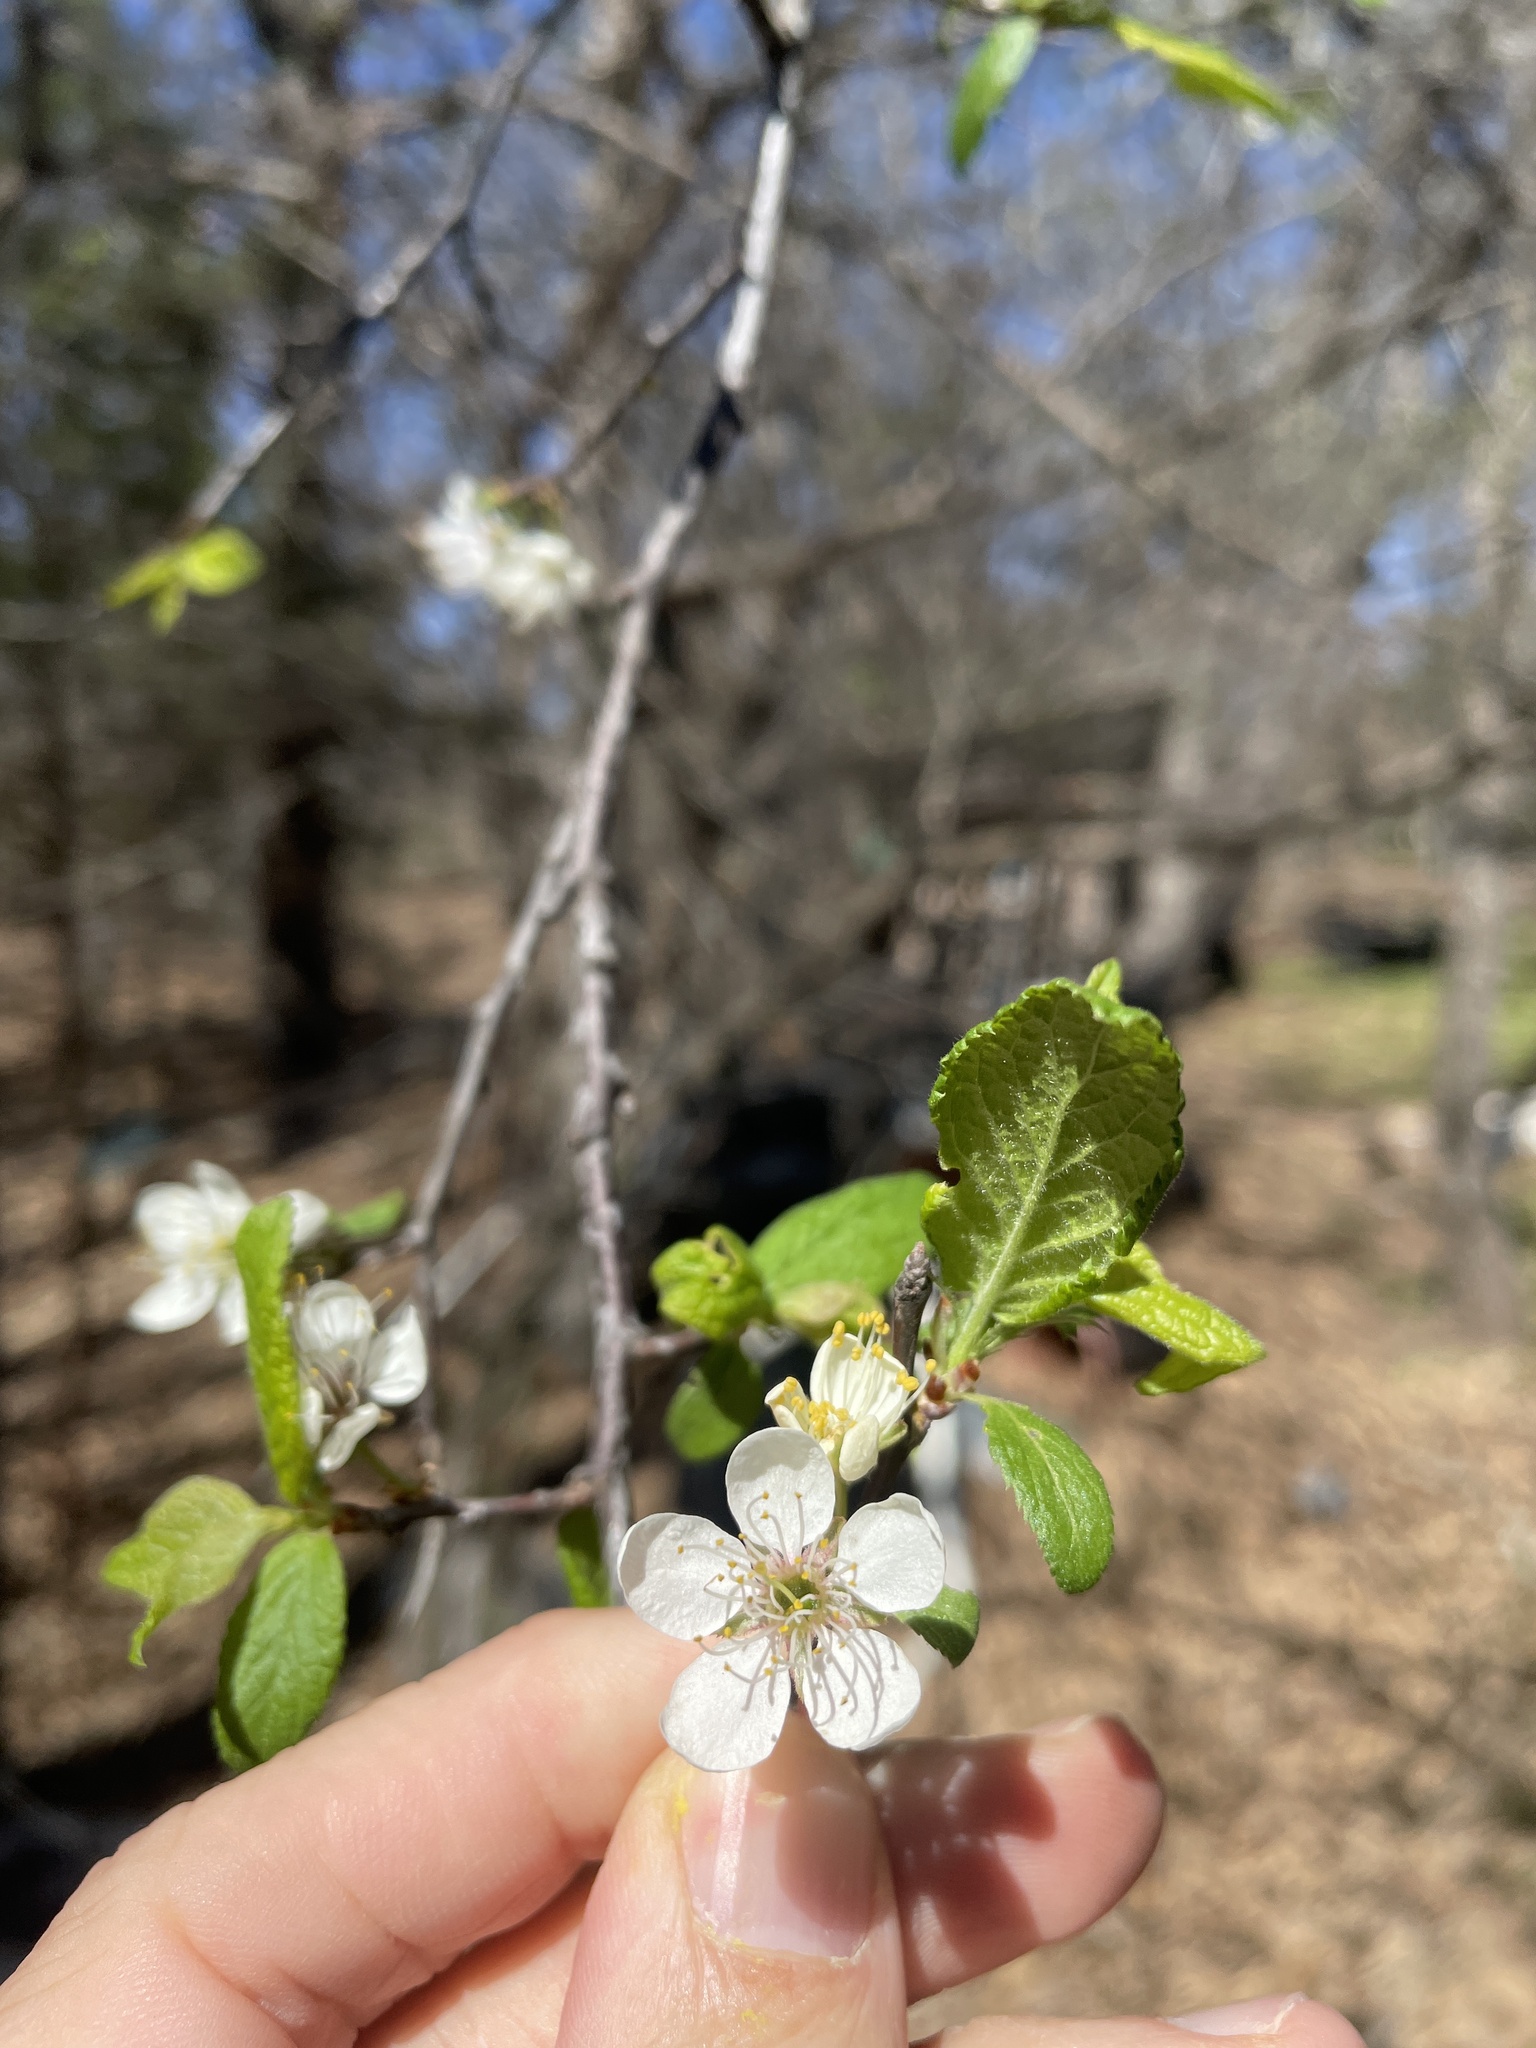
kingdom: Plantae
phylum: Tracheophyta
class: Magnoliopsida
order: Rosales
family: Rosaceae
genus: Prunus
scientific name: Prunus mexicana
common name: Mexican plum
